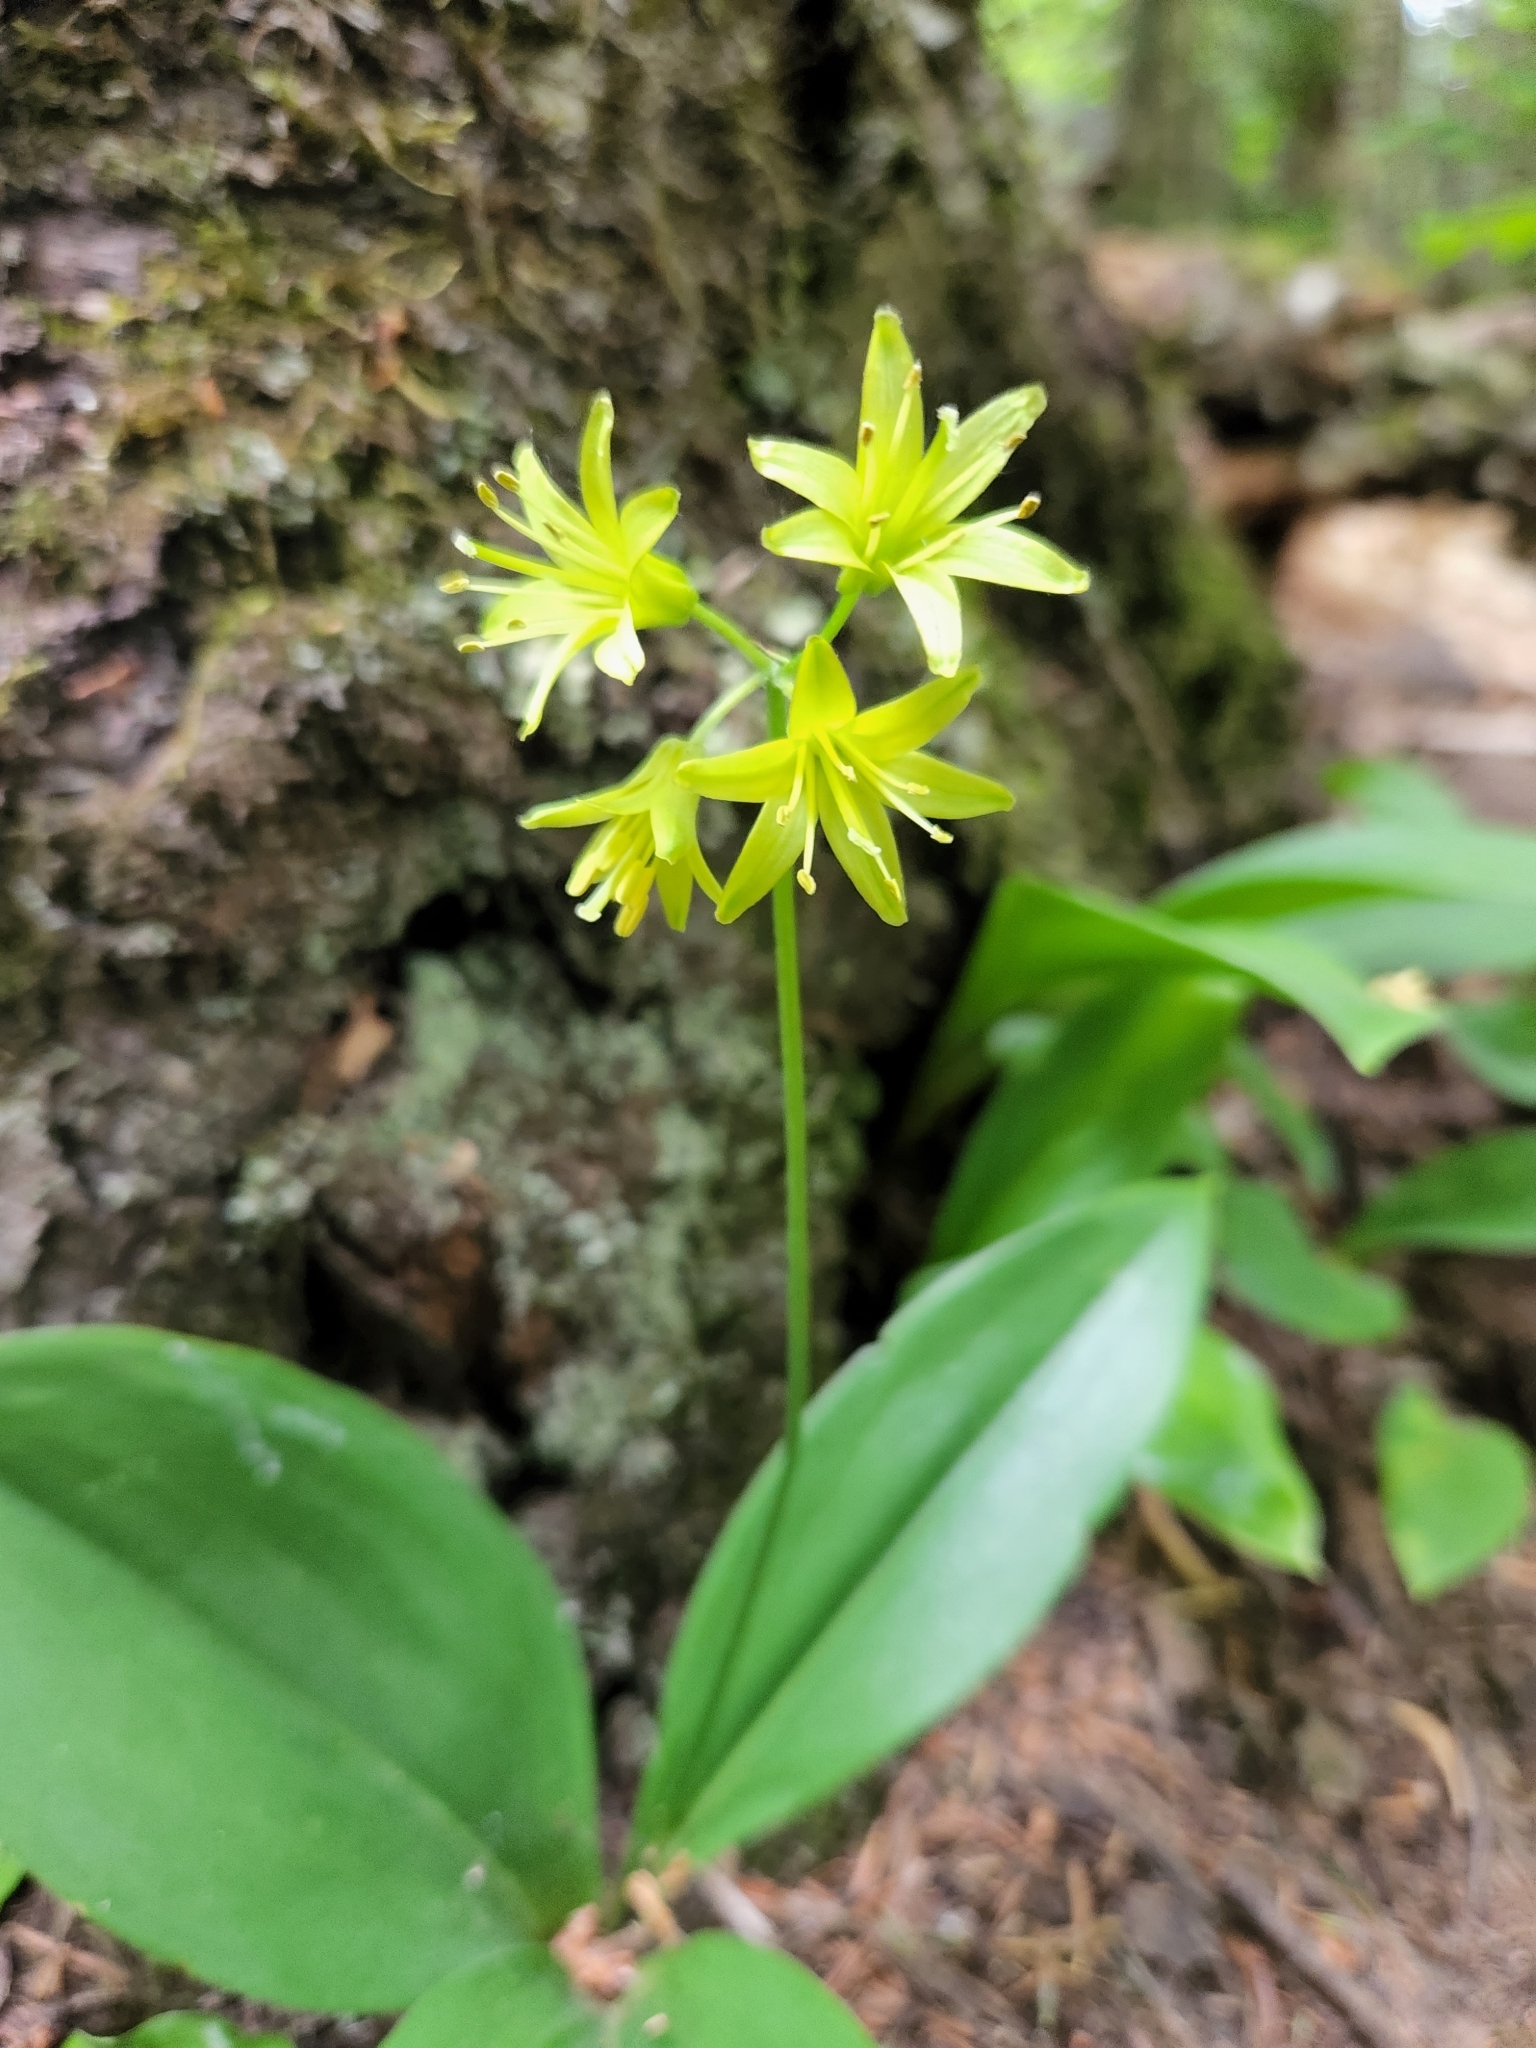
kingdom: Plantae
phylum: Tracheophyta
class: Liliopsida
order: Liliales
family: Liliaceae
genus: Clintonia
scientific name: Clintonia borealis
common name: Yellow clintonia
